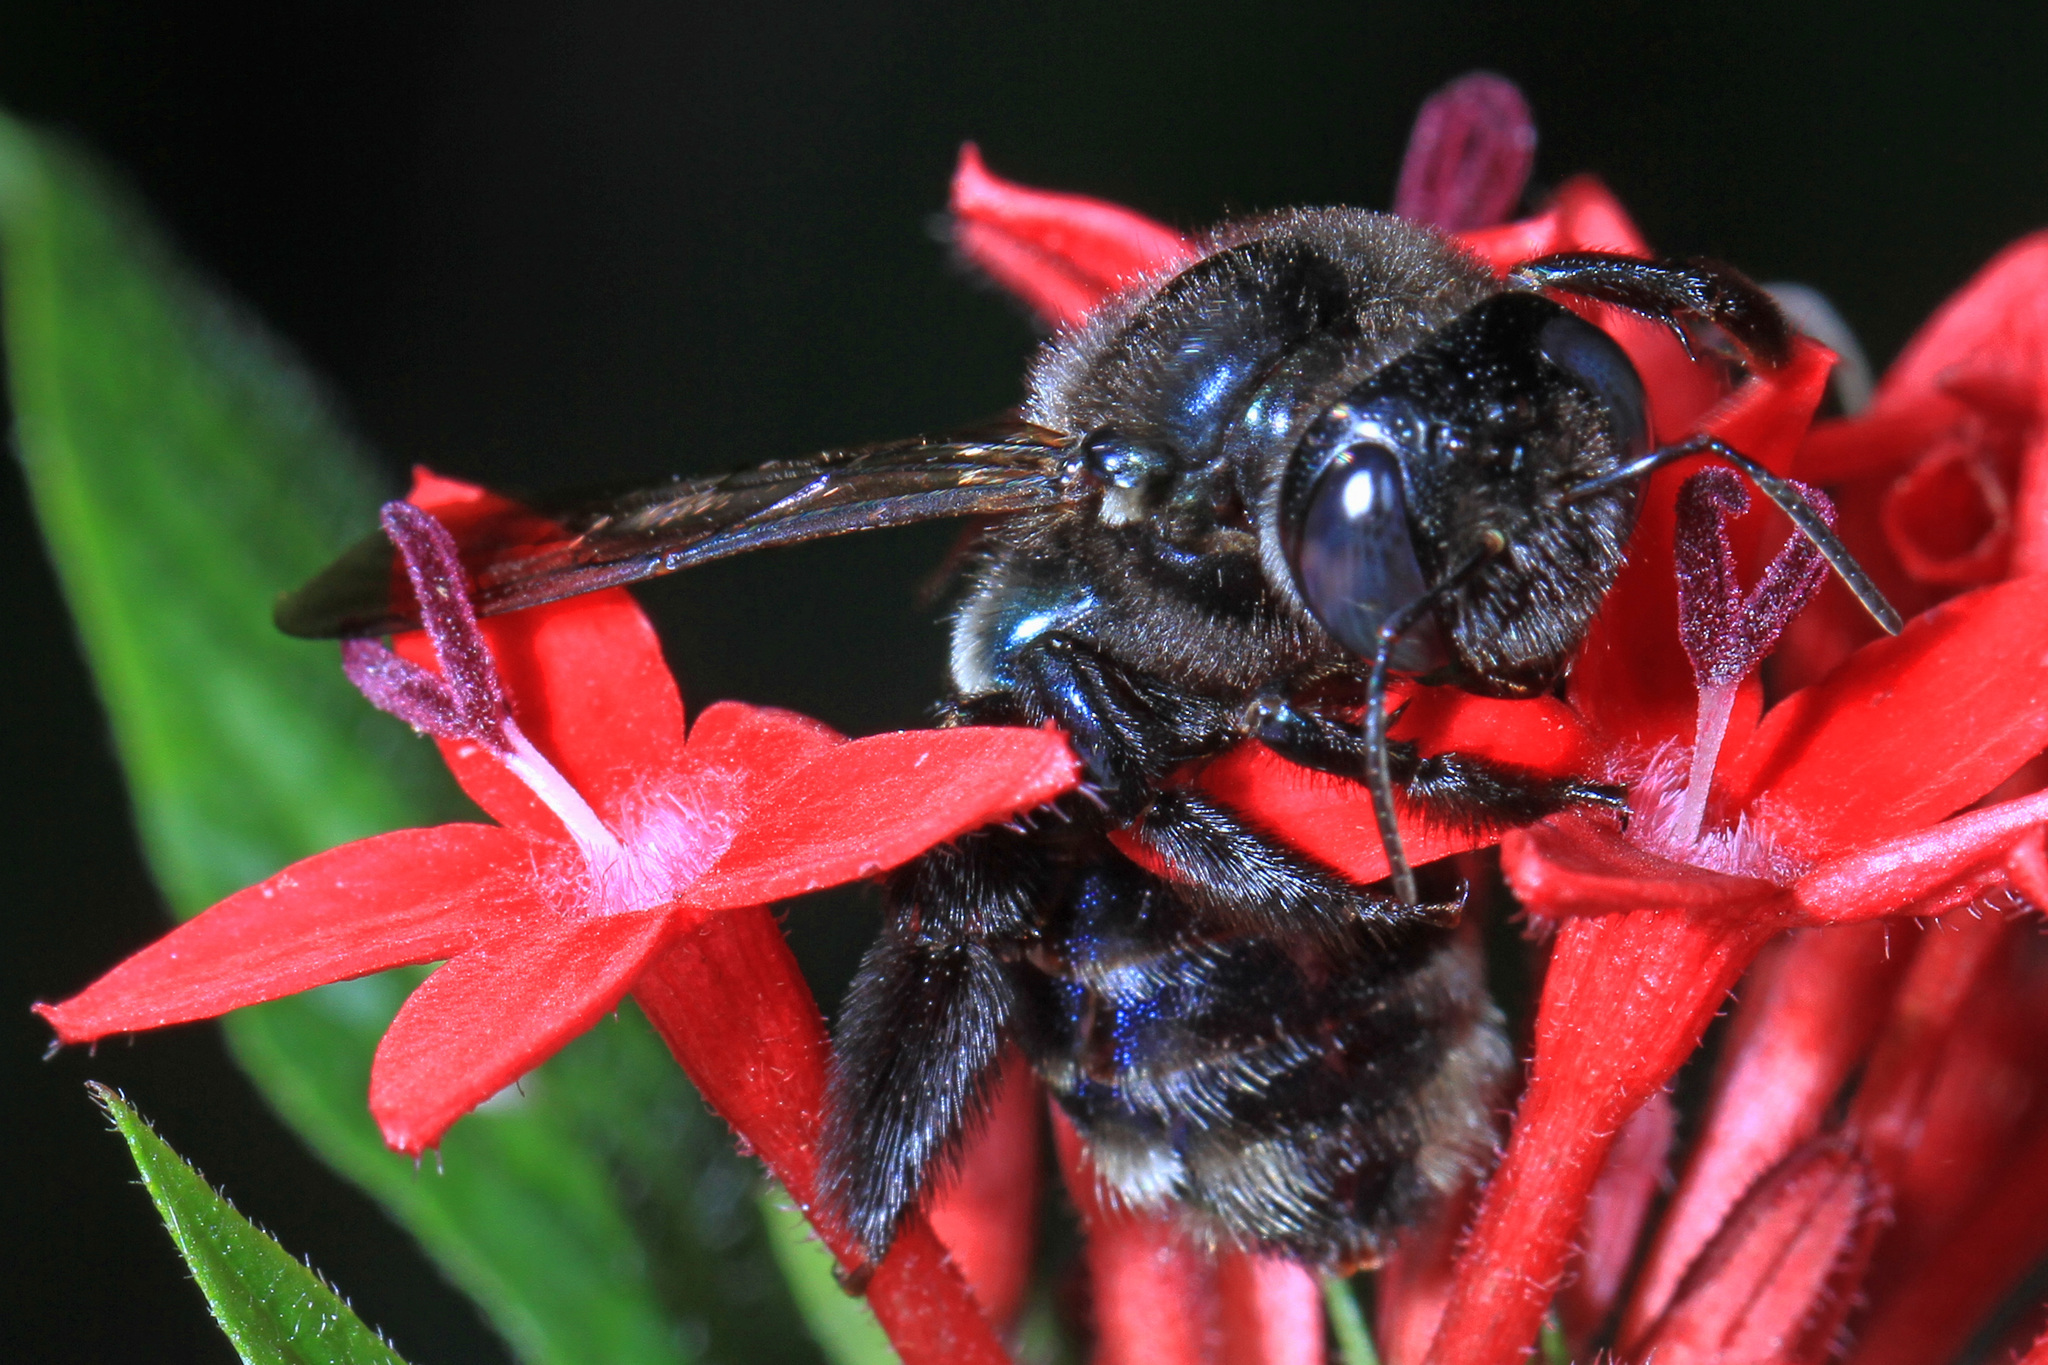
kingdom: Animalia
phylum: Arthropoda
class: Insecta
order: Hymenoptera
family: Apidae
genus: Xylocopa
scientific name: Xylocopa micans
